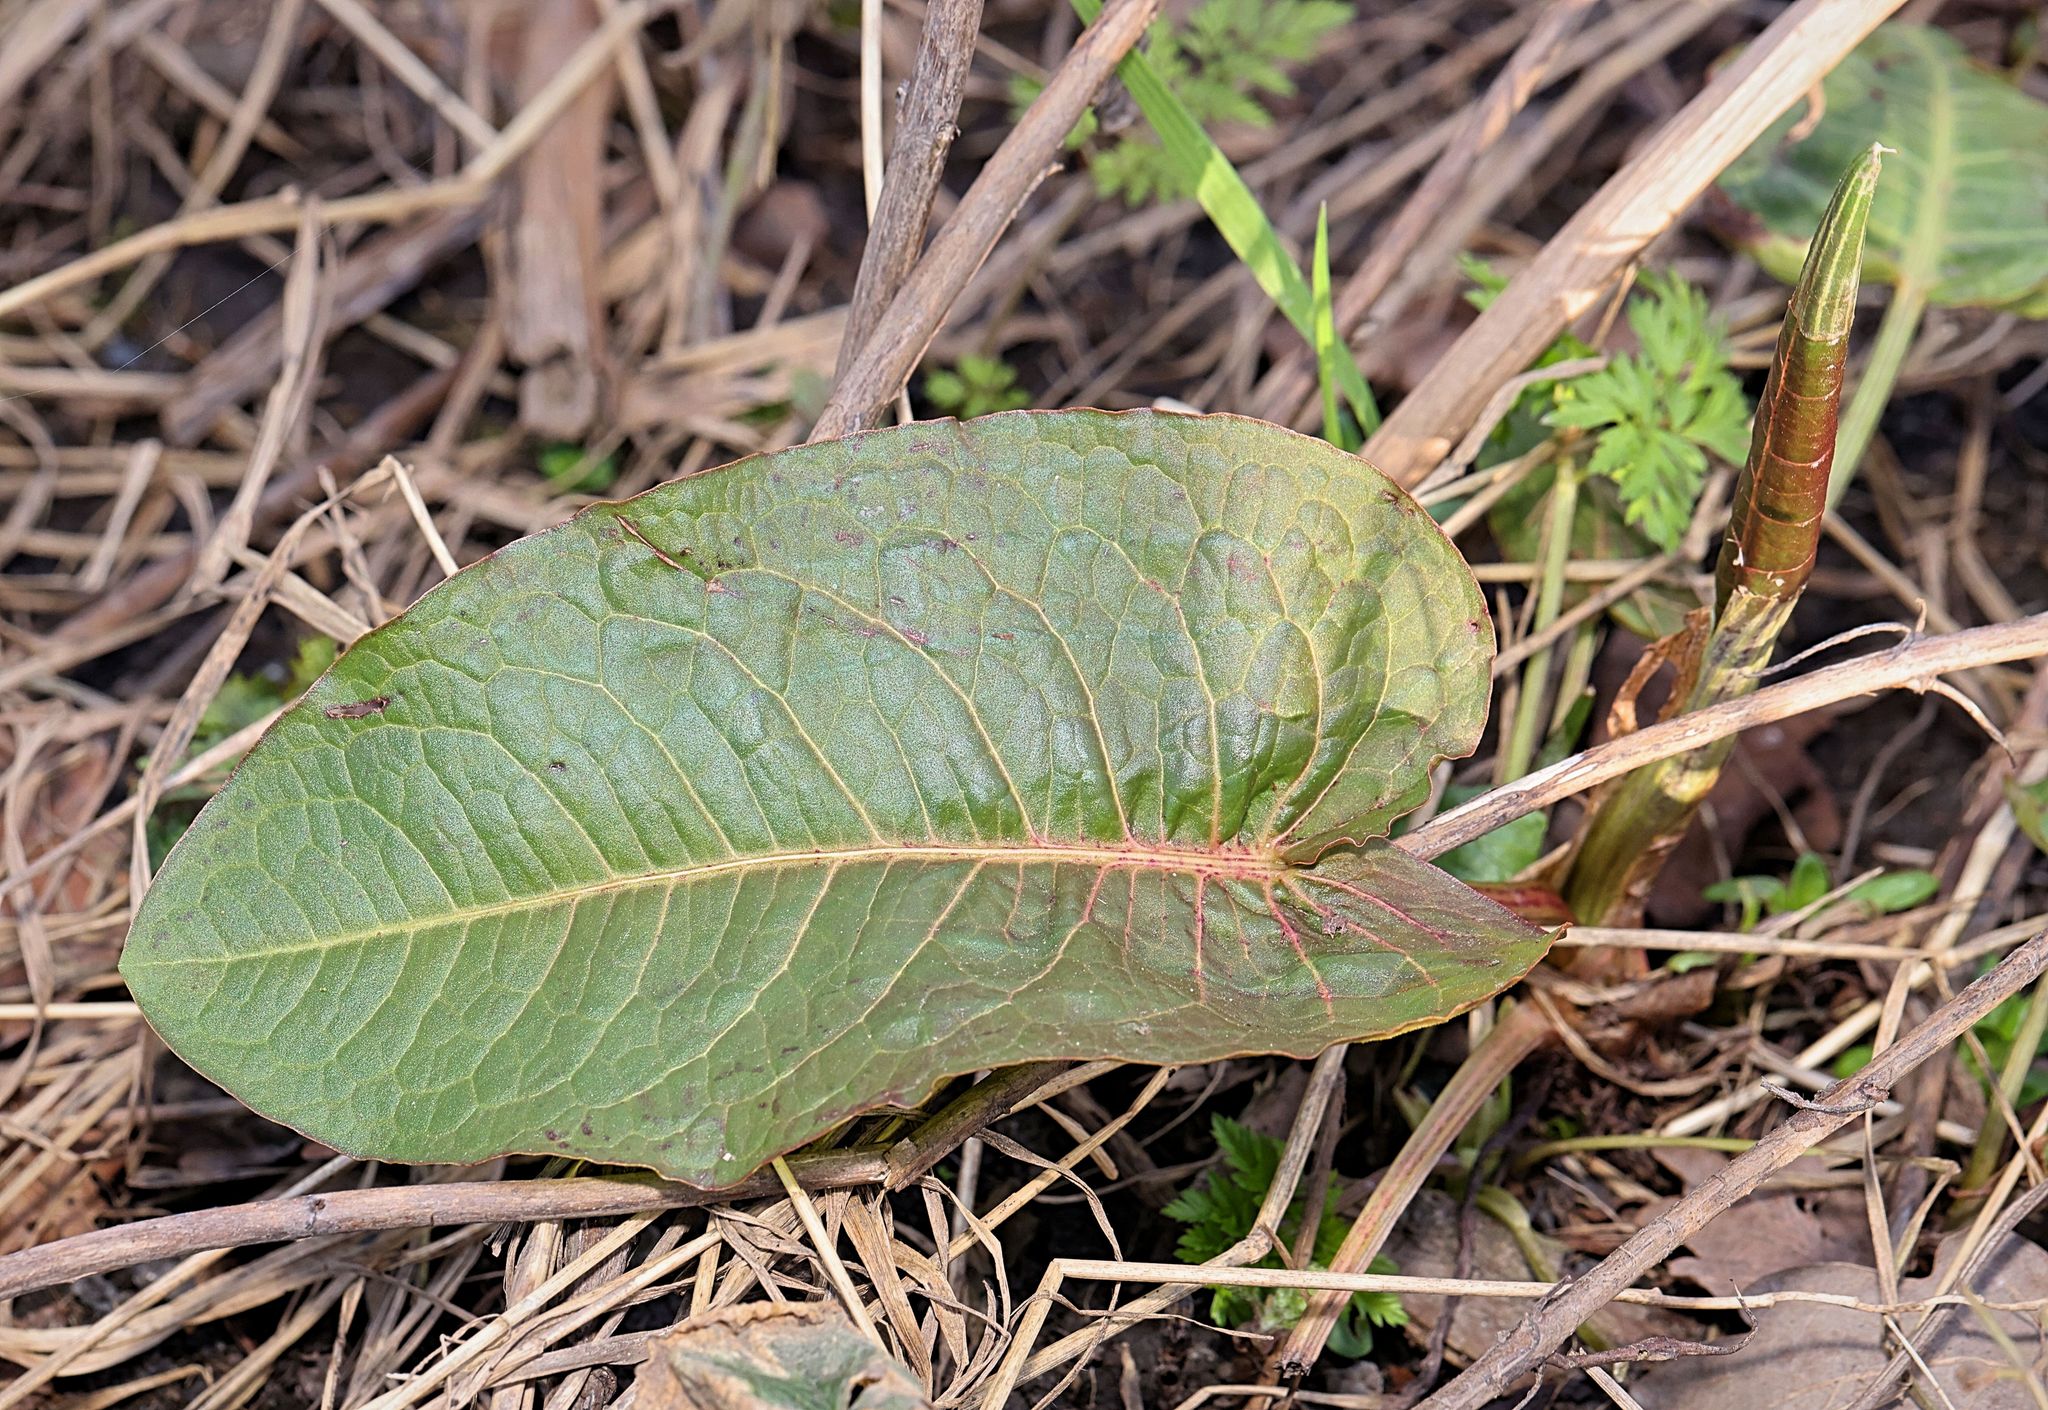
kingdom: Plantae
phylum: Tracheophyta
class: Magnoliopsida
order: Caryophyllales
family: Polygonaceae
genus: Rumex
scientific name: Rumex obtusifolius
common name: Bitter dock
